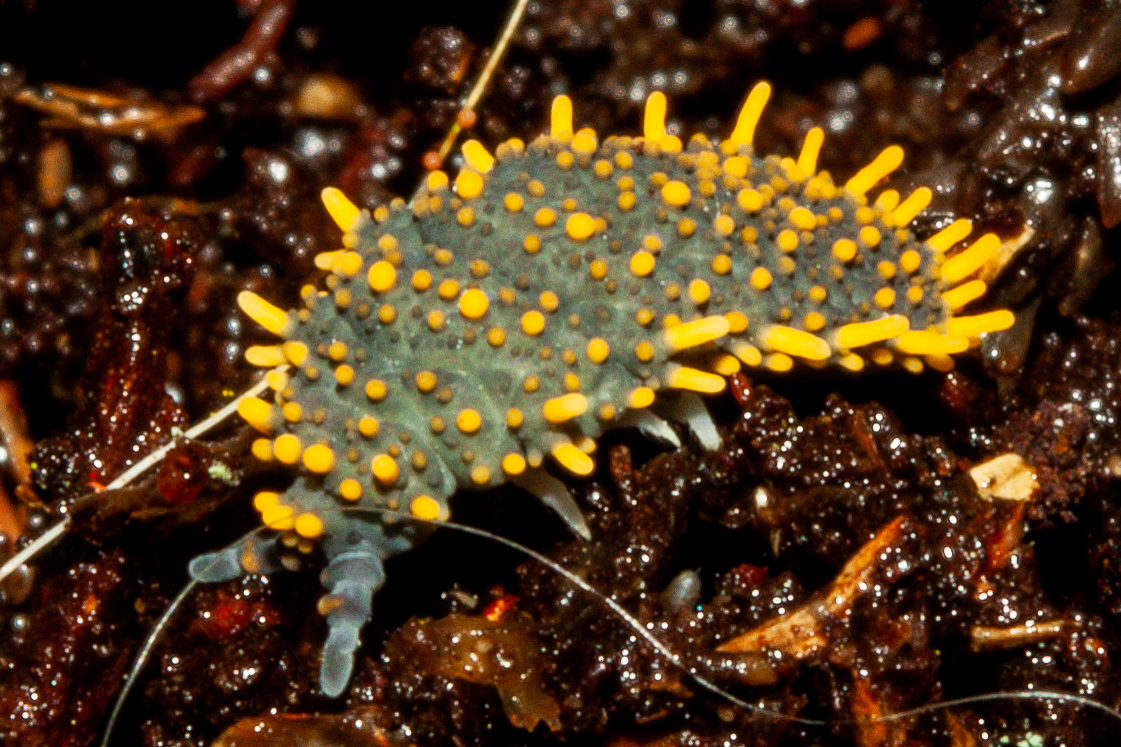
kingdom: Animalia
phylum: Arthropoda
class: Collembola
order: Poduromorpha
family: Neanuridae
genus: Holacanthella
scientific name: Holacanthella paucispinosa
